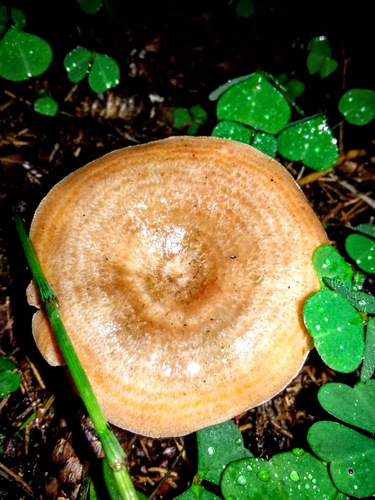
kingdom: Fungi
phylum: Basidiomycota
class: Agaricomycetes
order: Russulales
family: Russulaceae
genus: Lactarius
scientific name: Lactarius deliciosus
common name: Saffron milk-cap
